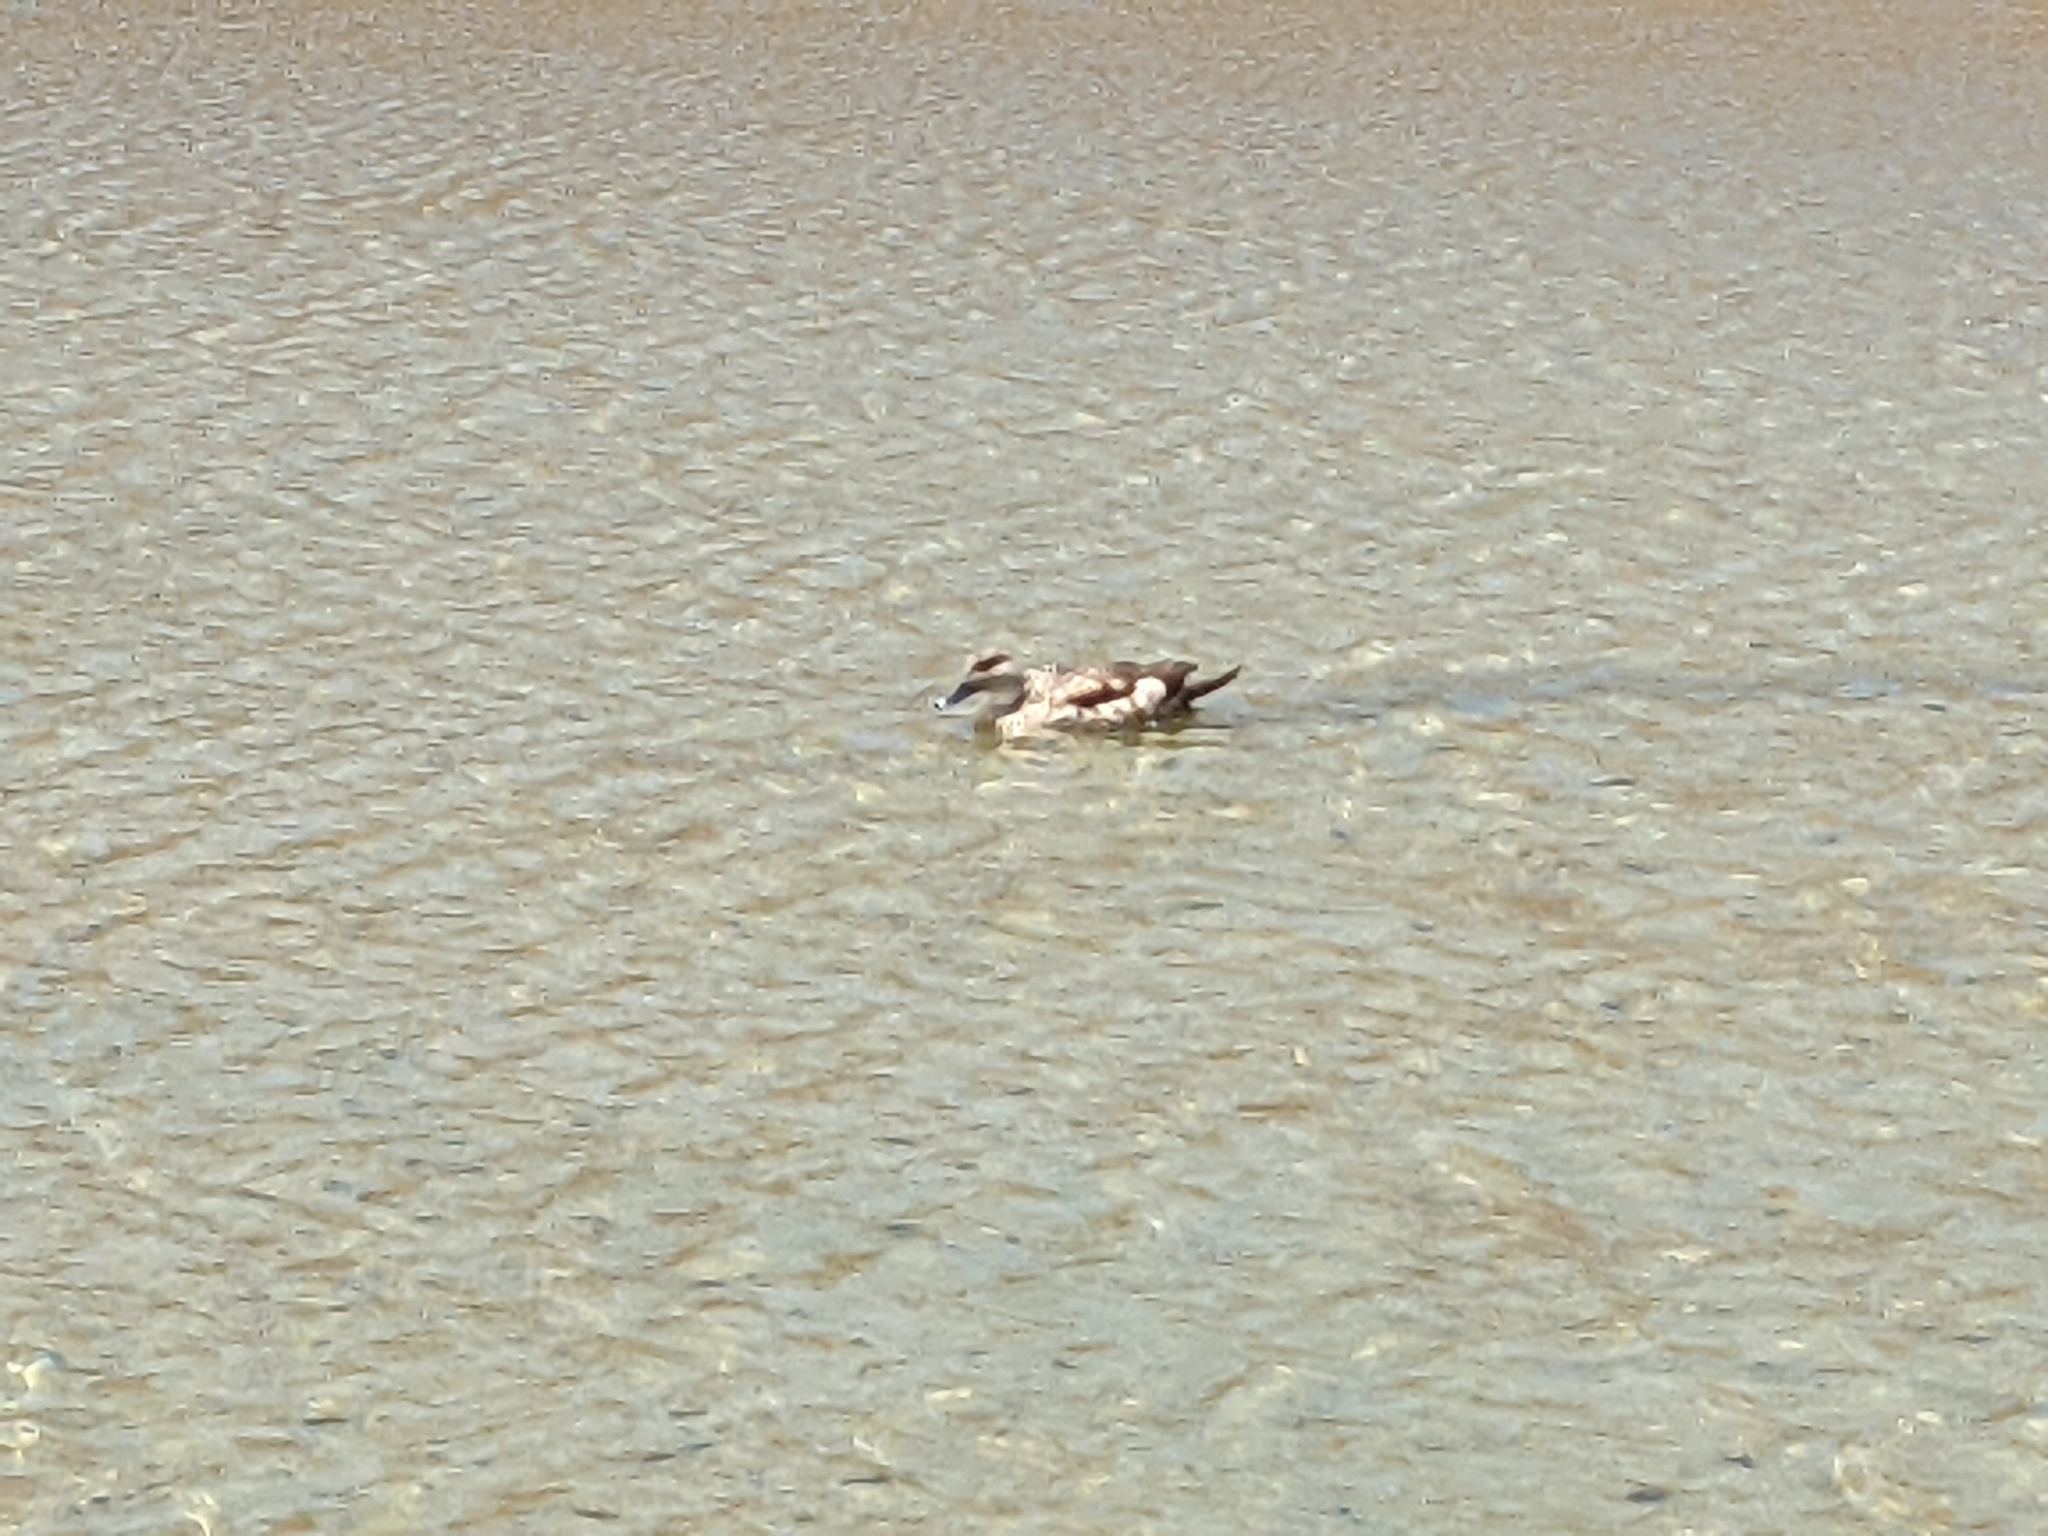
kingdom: Animalia
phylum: Chordata
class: Aves
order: Anseriformes
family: Anatidae
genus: Lophonetta
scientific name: Lophonetta specularioides
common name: Crested duck
